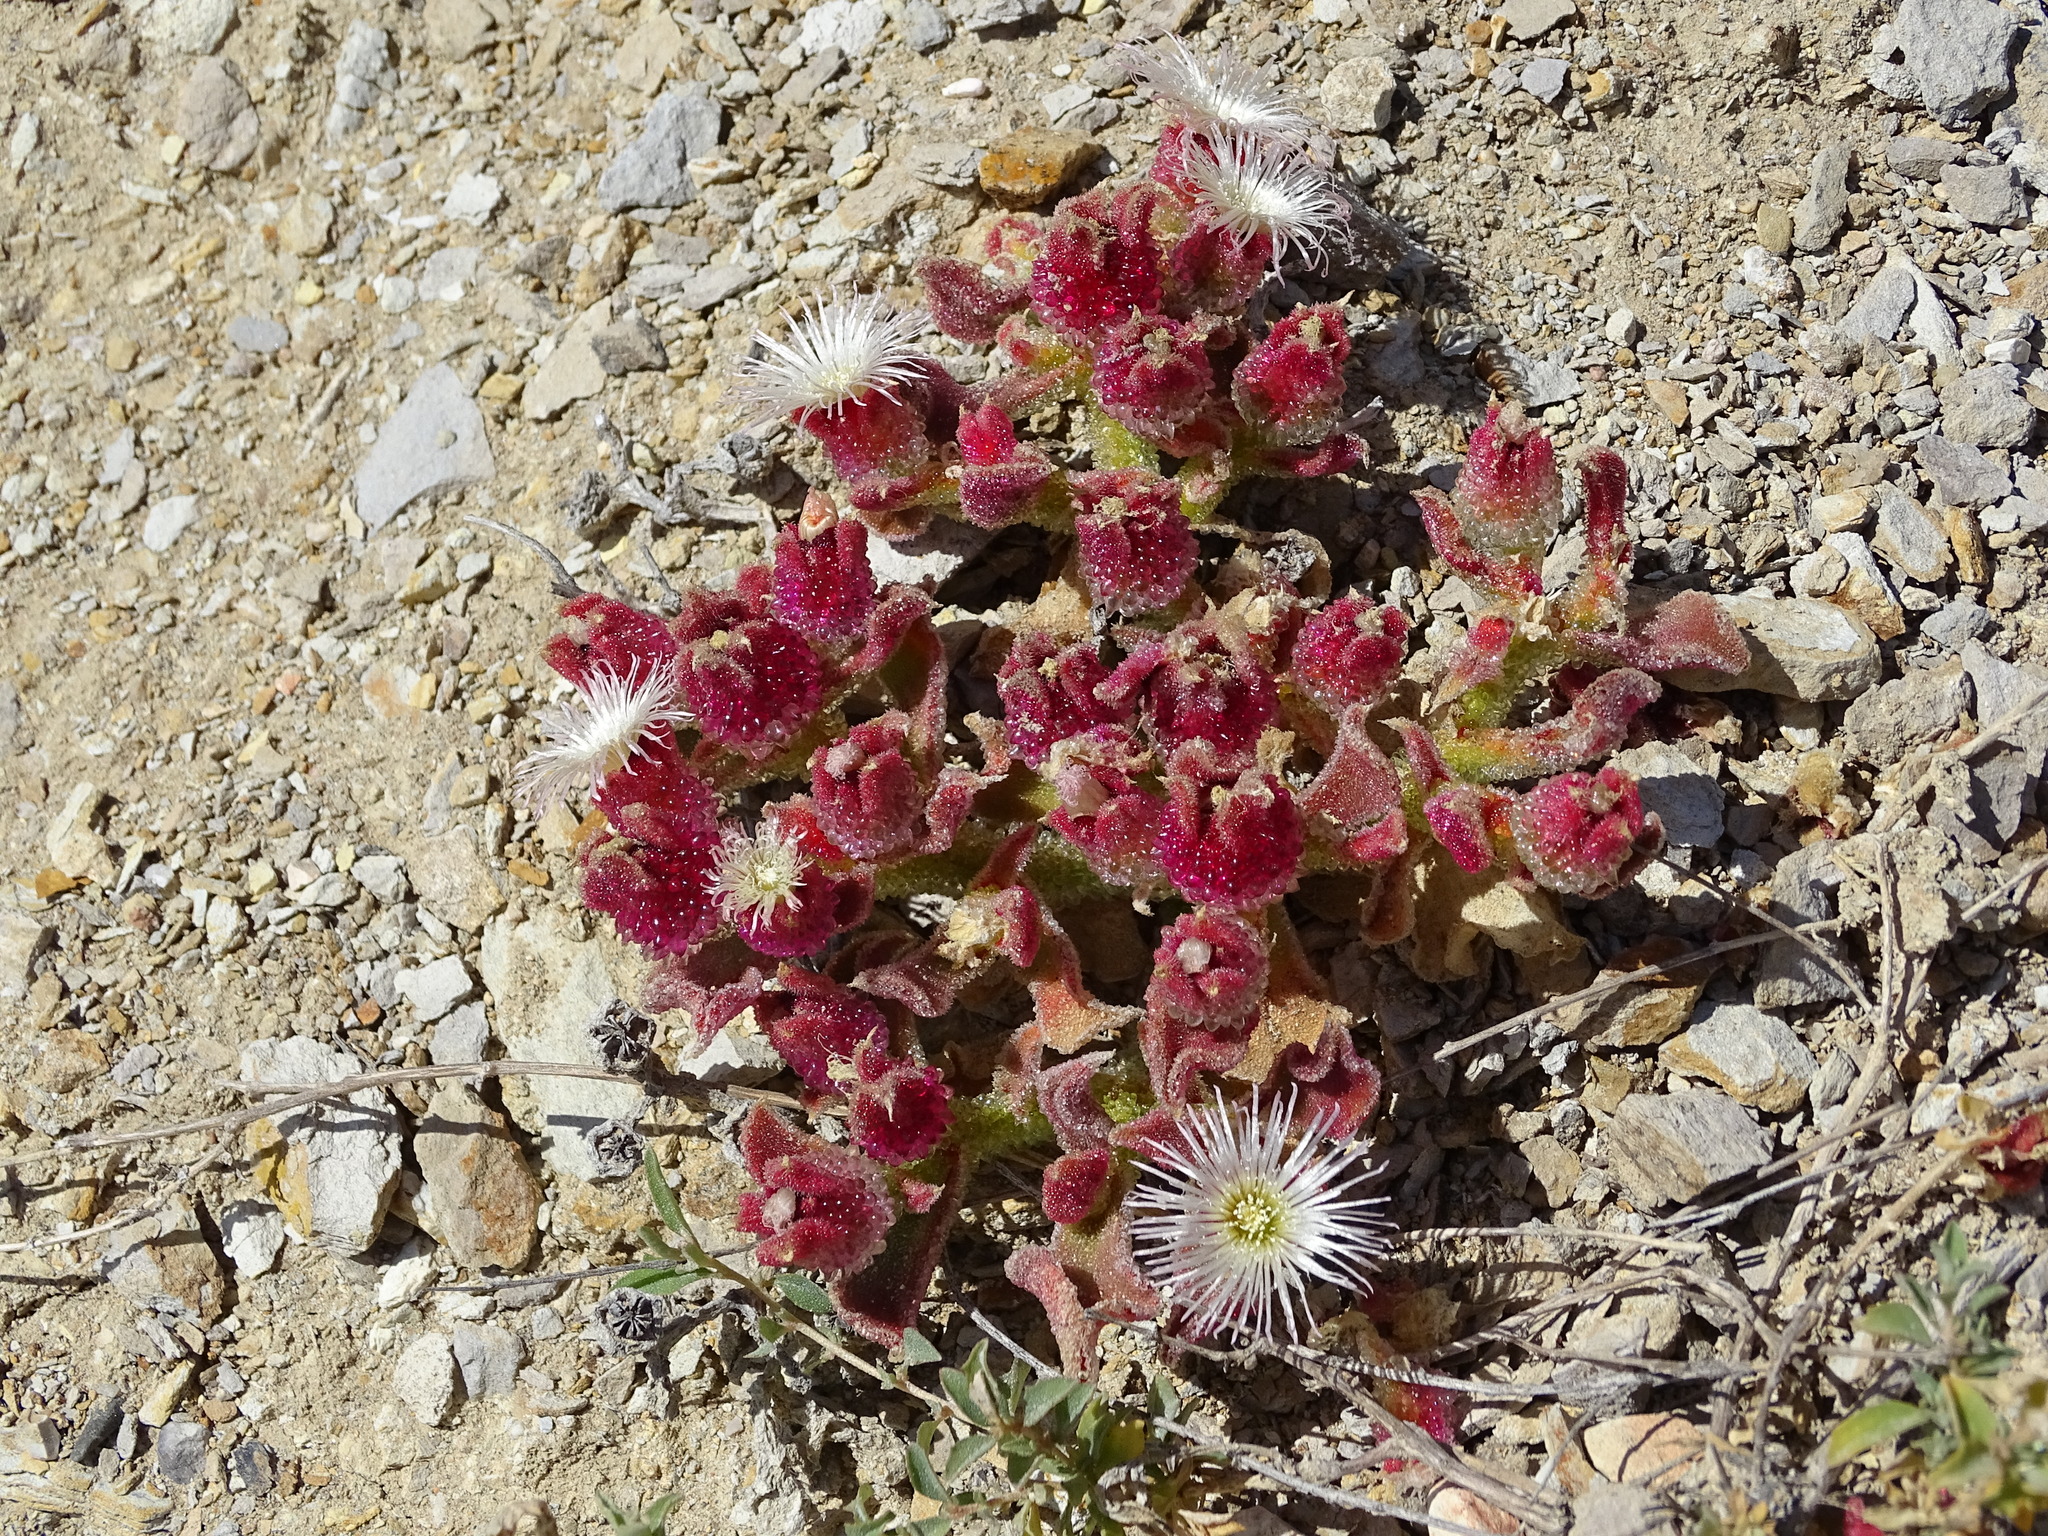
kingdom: Plantae
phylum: Tracheophyta
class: Magnoliopsida
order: Caryophyllales
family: Aizoaceae
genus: Mesembryanthemum
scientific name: Mesembryanthemum crystallinum
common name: Common iceplant
